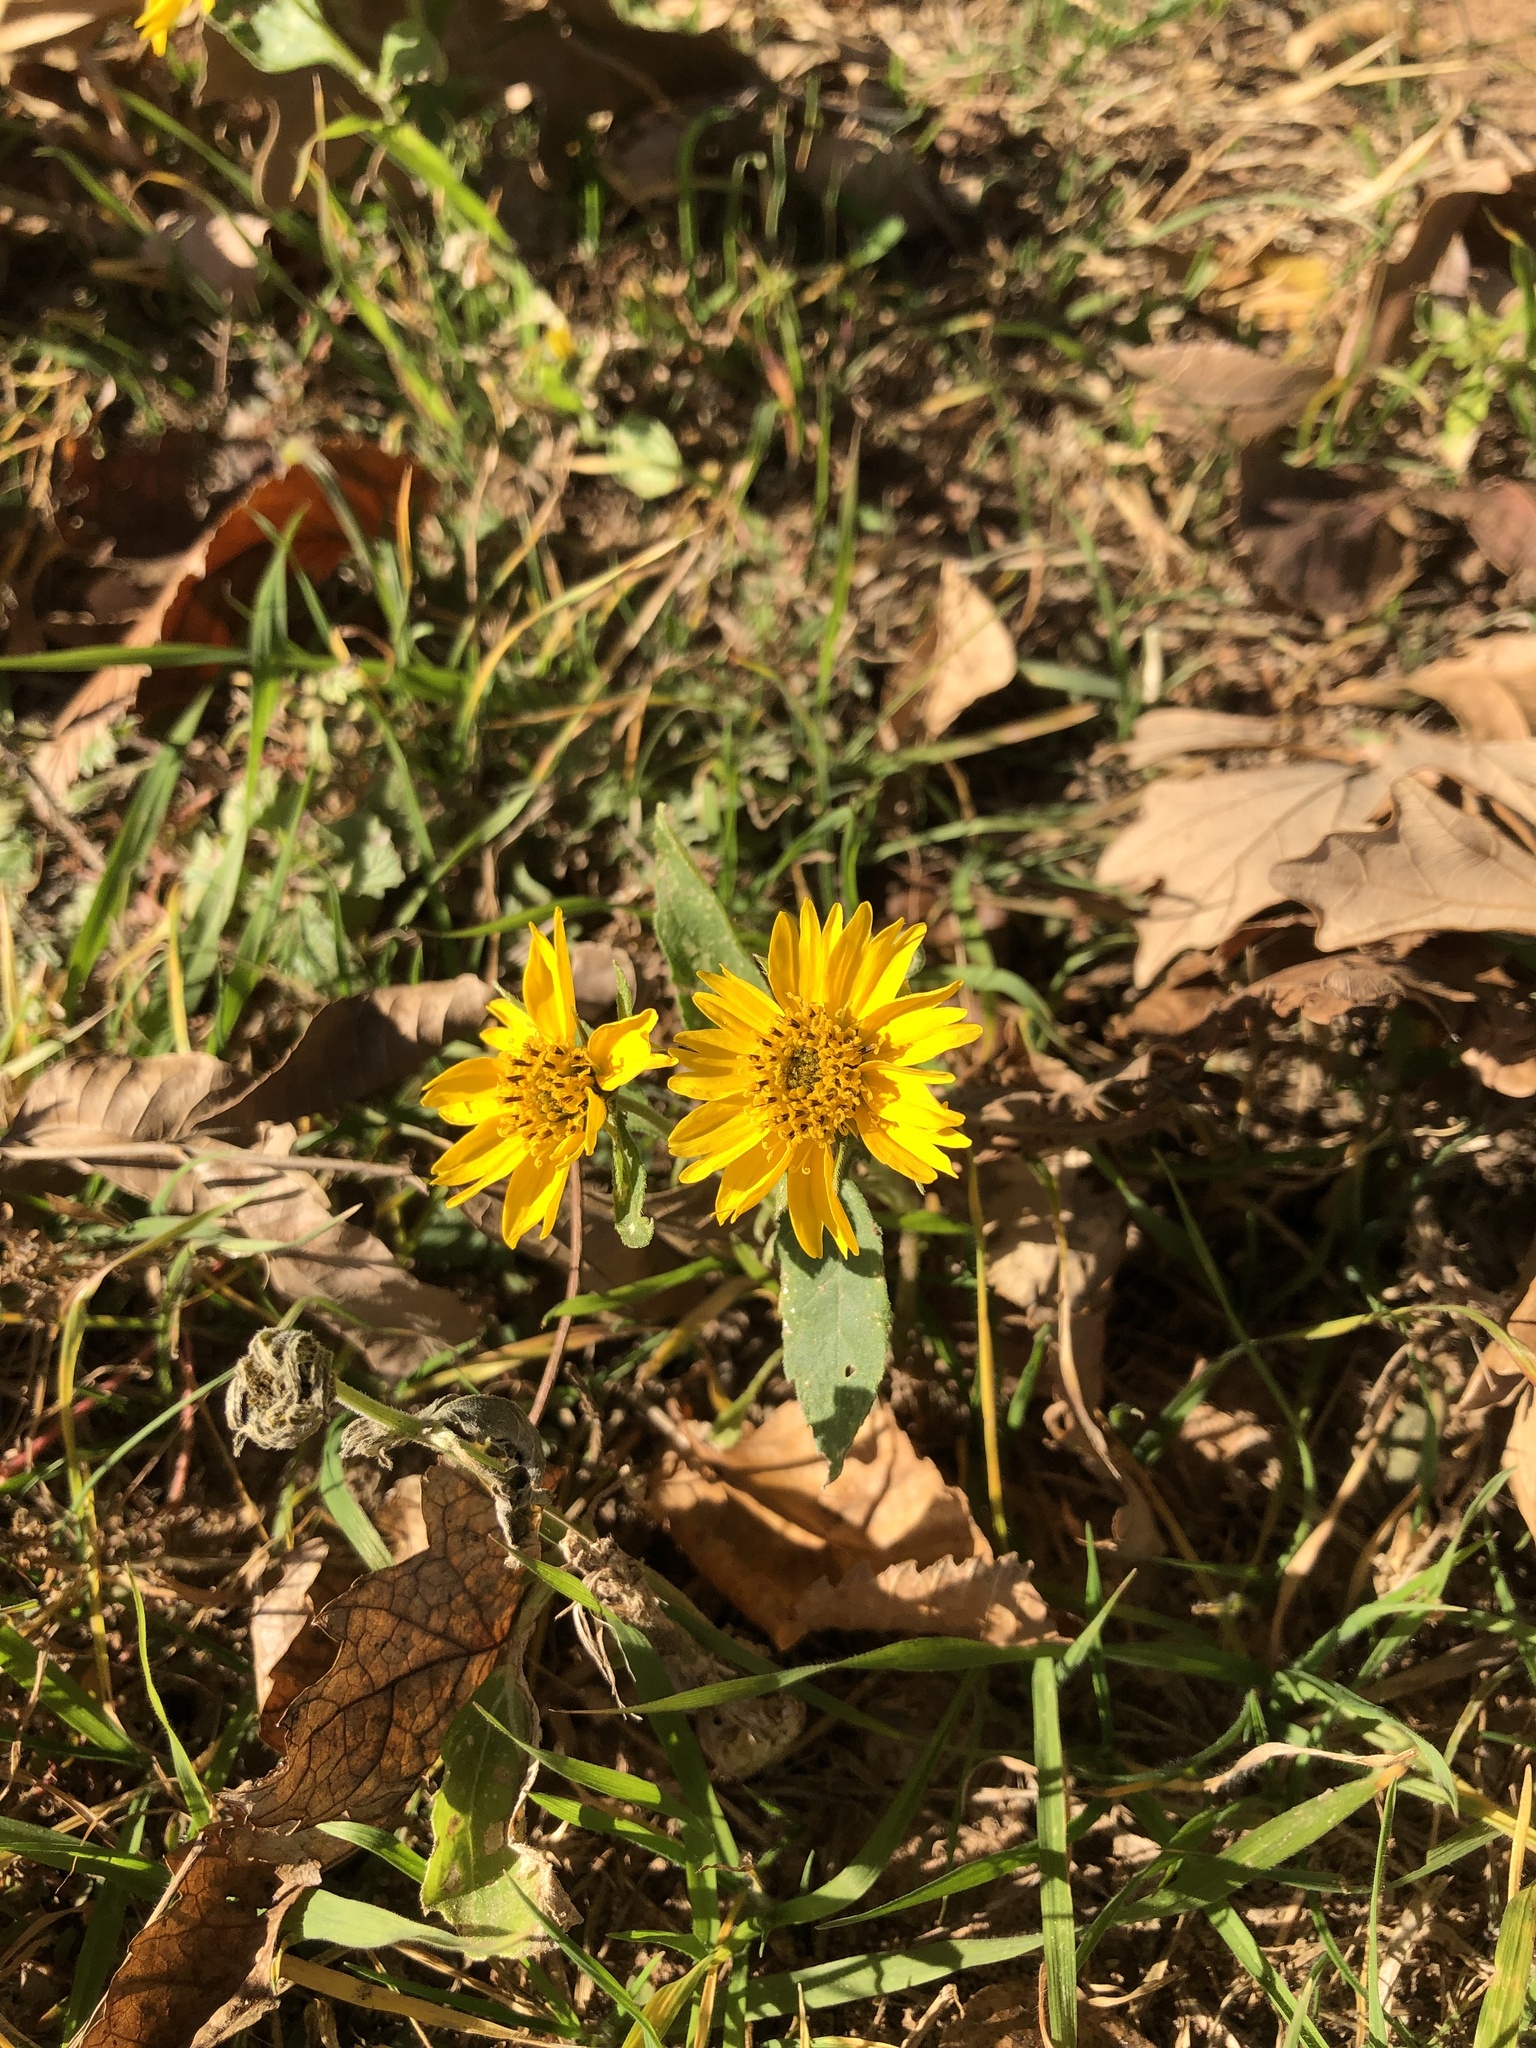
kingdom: Plantae
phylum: Tracheophyta
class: Magnoliopsida
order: Asterales
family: Asteraceae
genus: Verbesina
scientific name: Verbesina encelioides
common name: Golden crownbeard
